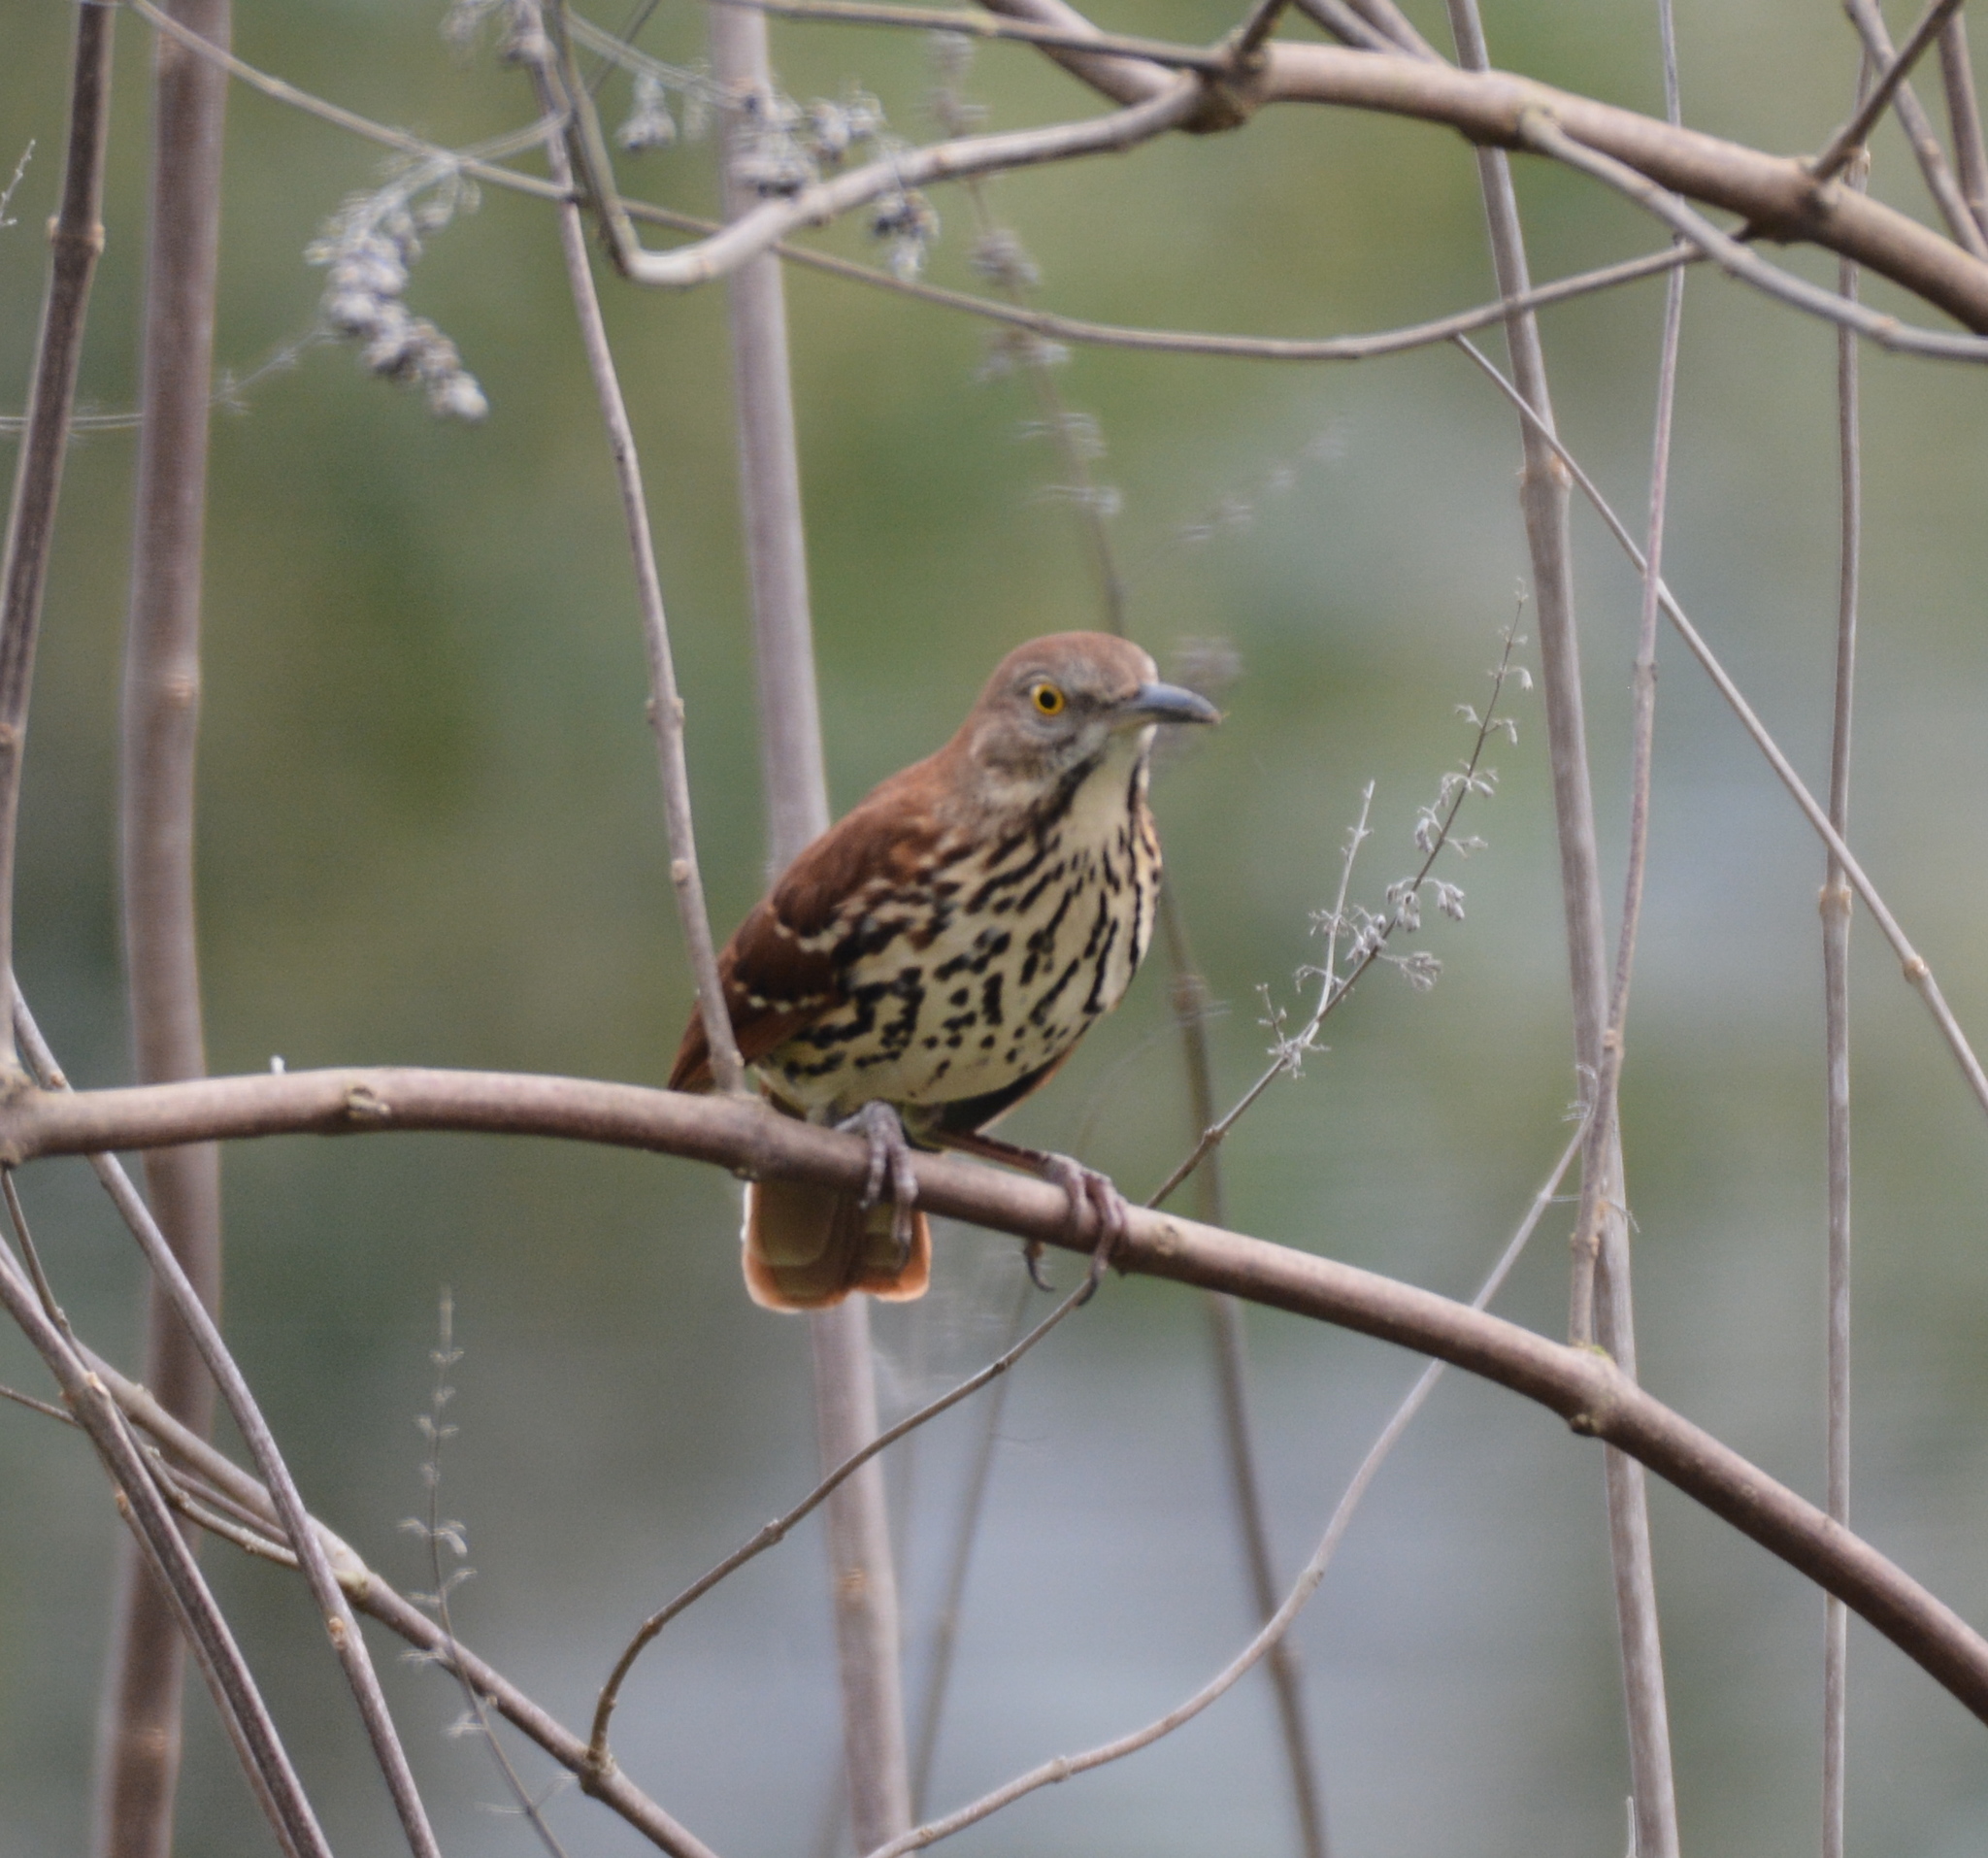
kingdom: Animalia
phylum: Chordata
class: Aves
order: Passeriformes
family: Mimidae
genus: Toxostoma
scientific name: Toxostoma rufum
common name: Brown thrasher
